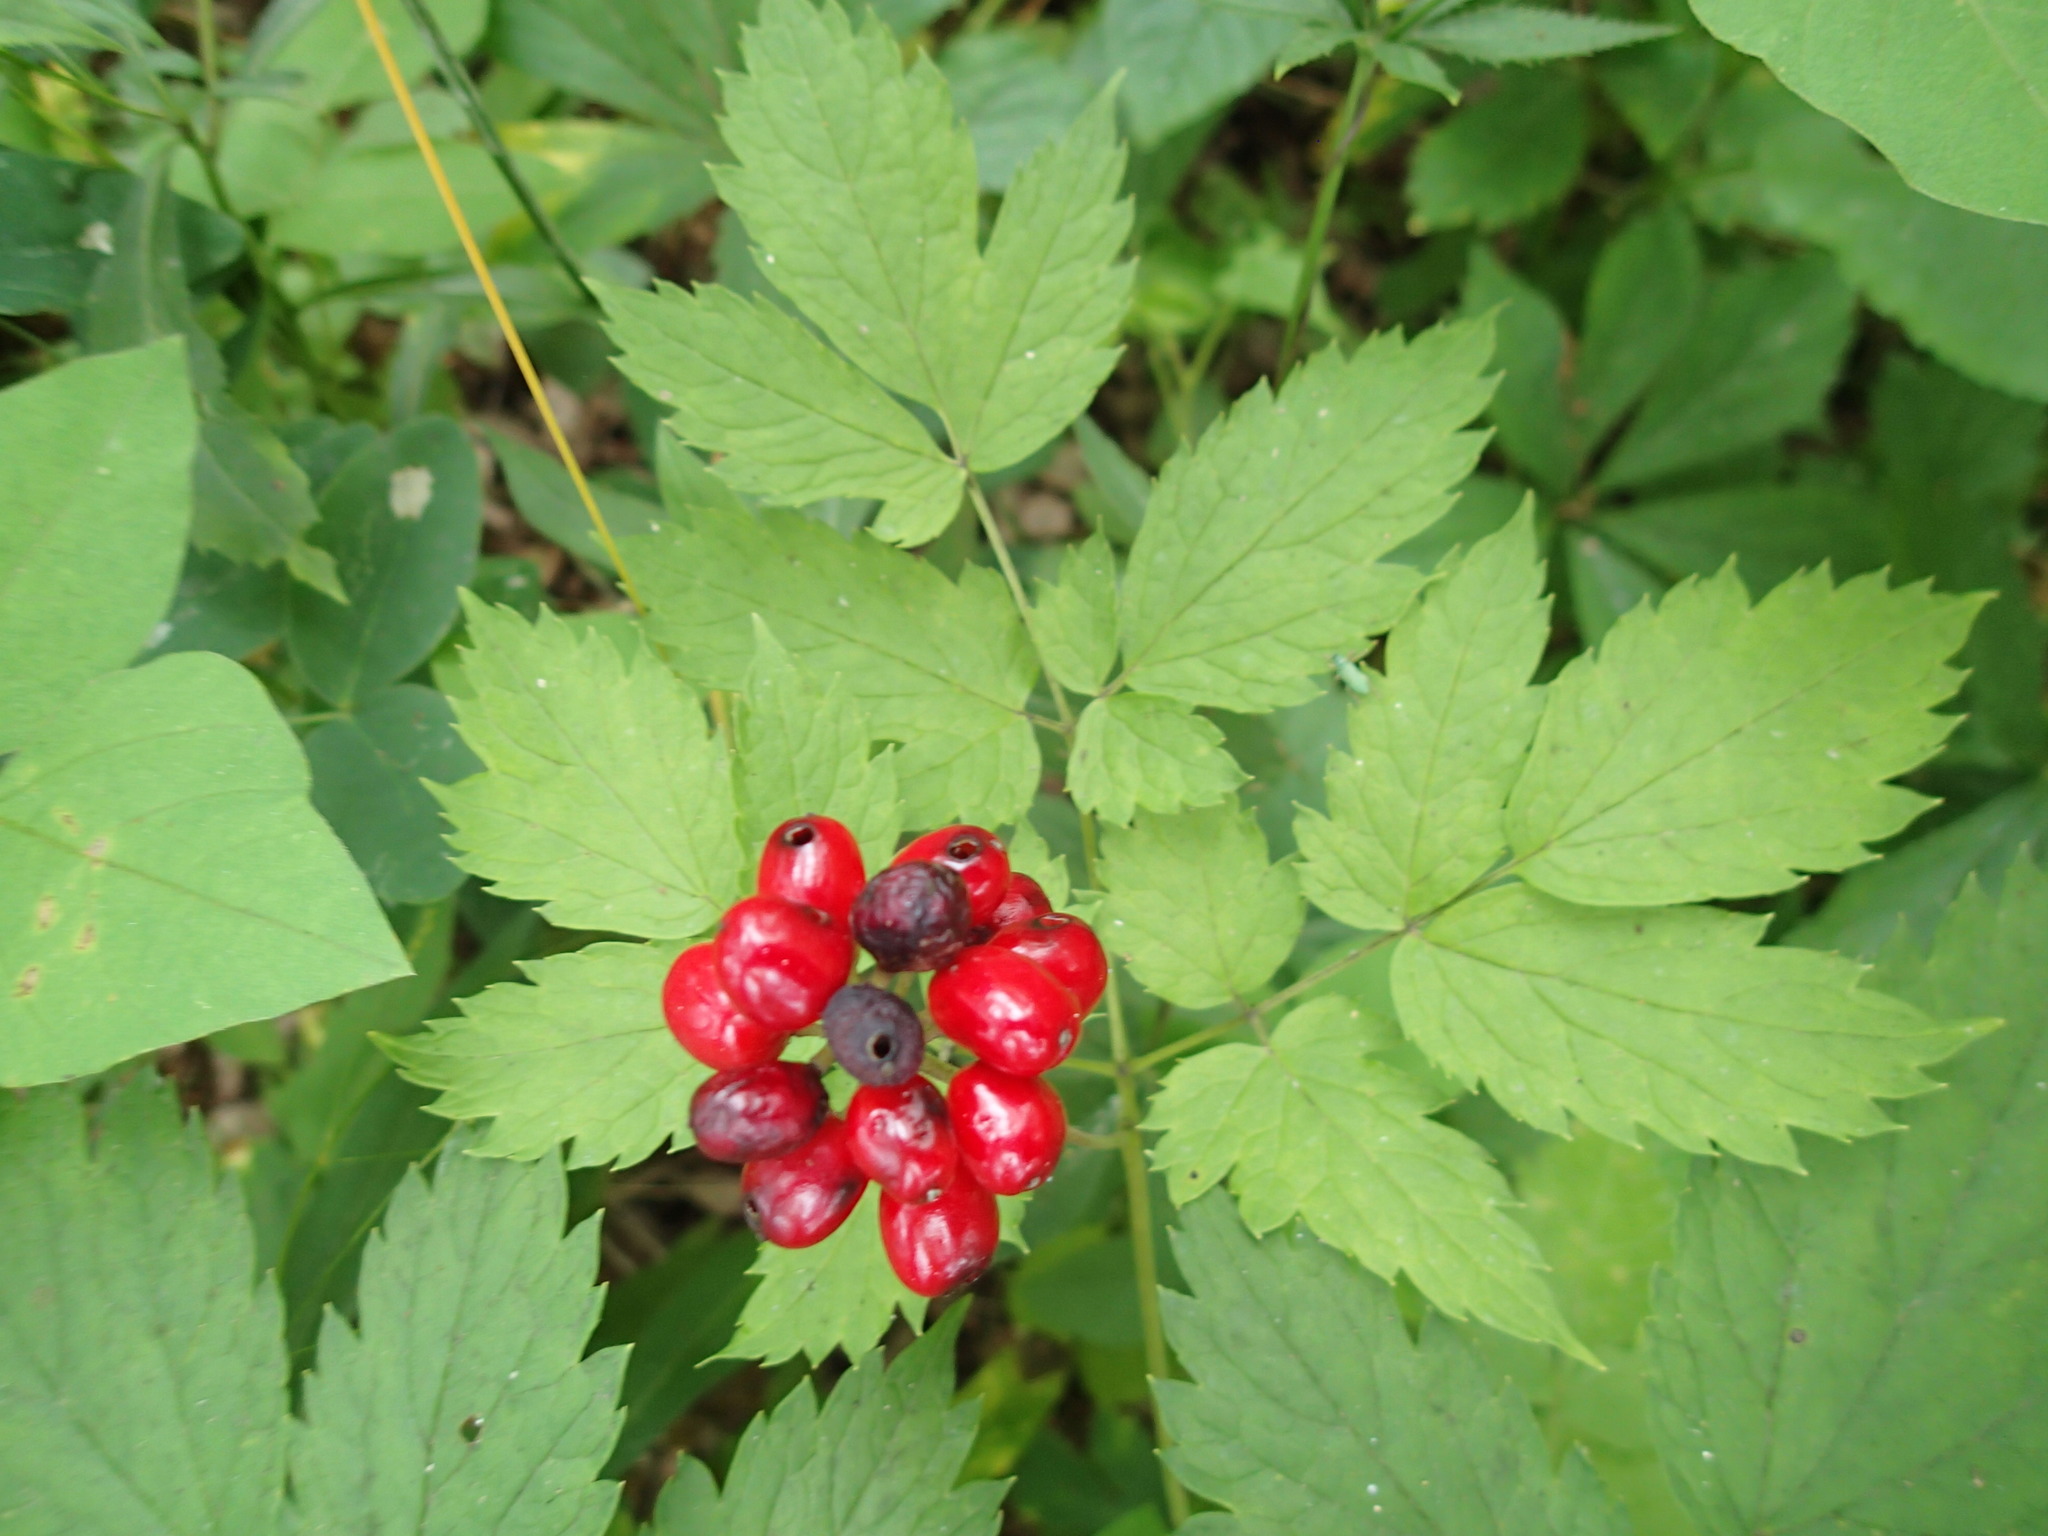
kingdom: Plantae
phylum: Tracheophyta
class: Magnoliopsida
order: Ranunculales
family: Ranunculaceae
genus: Actaea
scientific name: Actaea rubra
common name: Red baneberry
